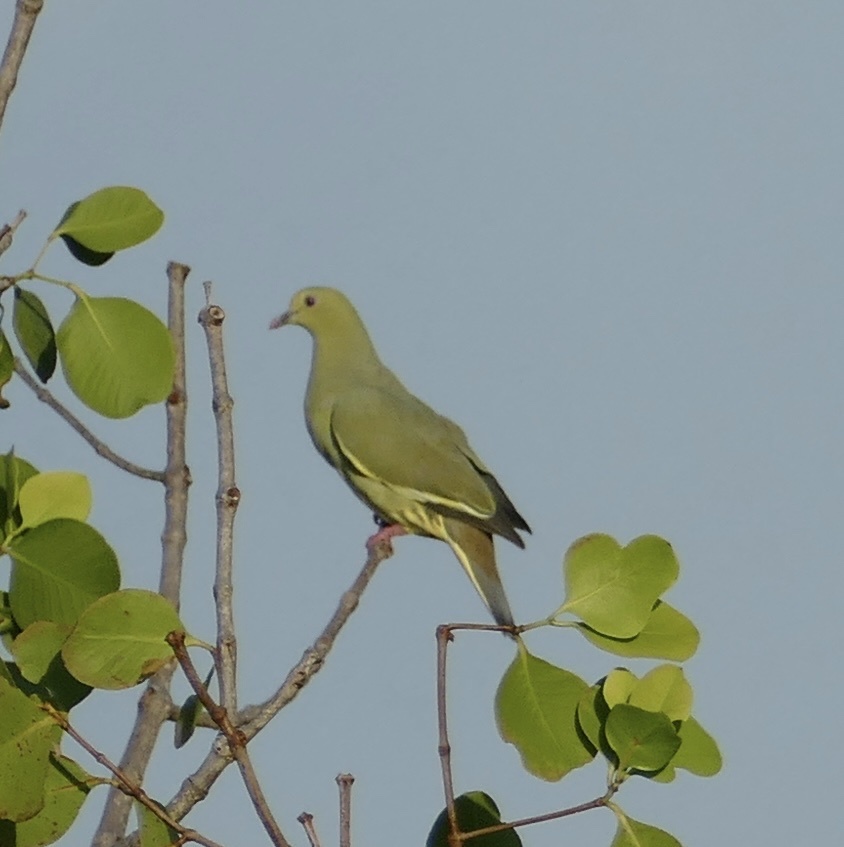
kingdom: Animalia
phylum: Chordata
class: Aves
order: Columbiformes
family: Columbidae
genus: Treron
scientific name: Treron vernans
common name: Pink-necked green pigeon
